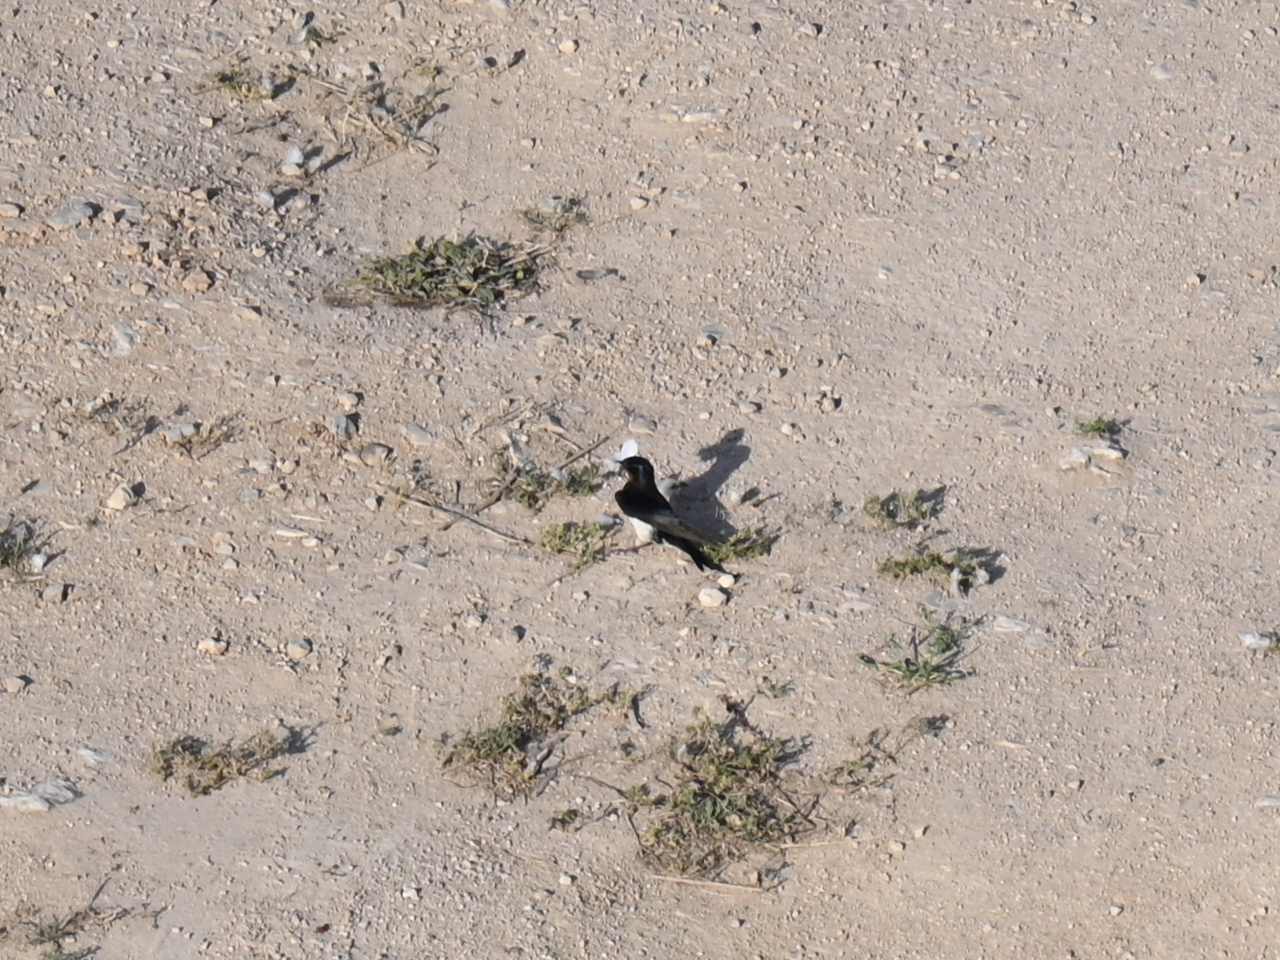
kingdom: Animalia
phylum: Chordata
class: Aves
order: Passeriformes
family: Hirundinidae
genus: Hirundo
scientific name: Hirundo rustica
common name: Barn swallow
